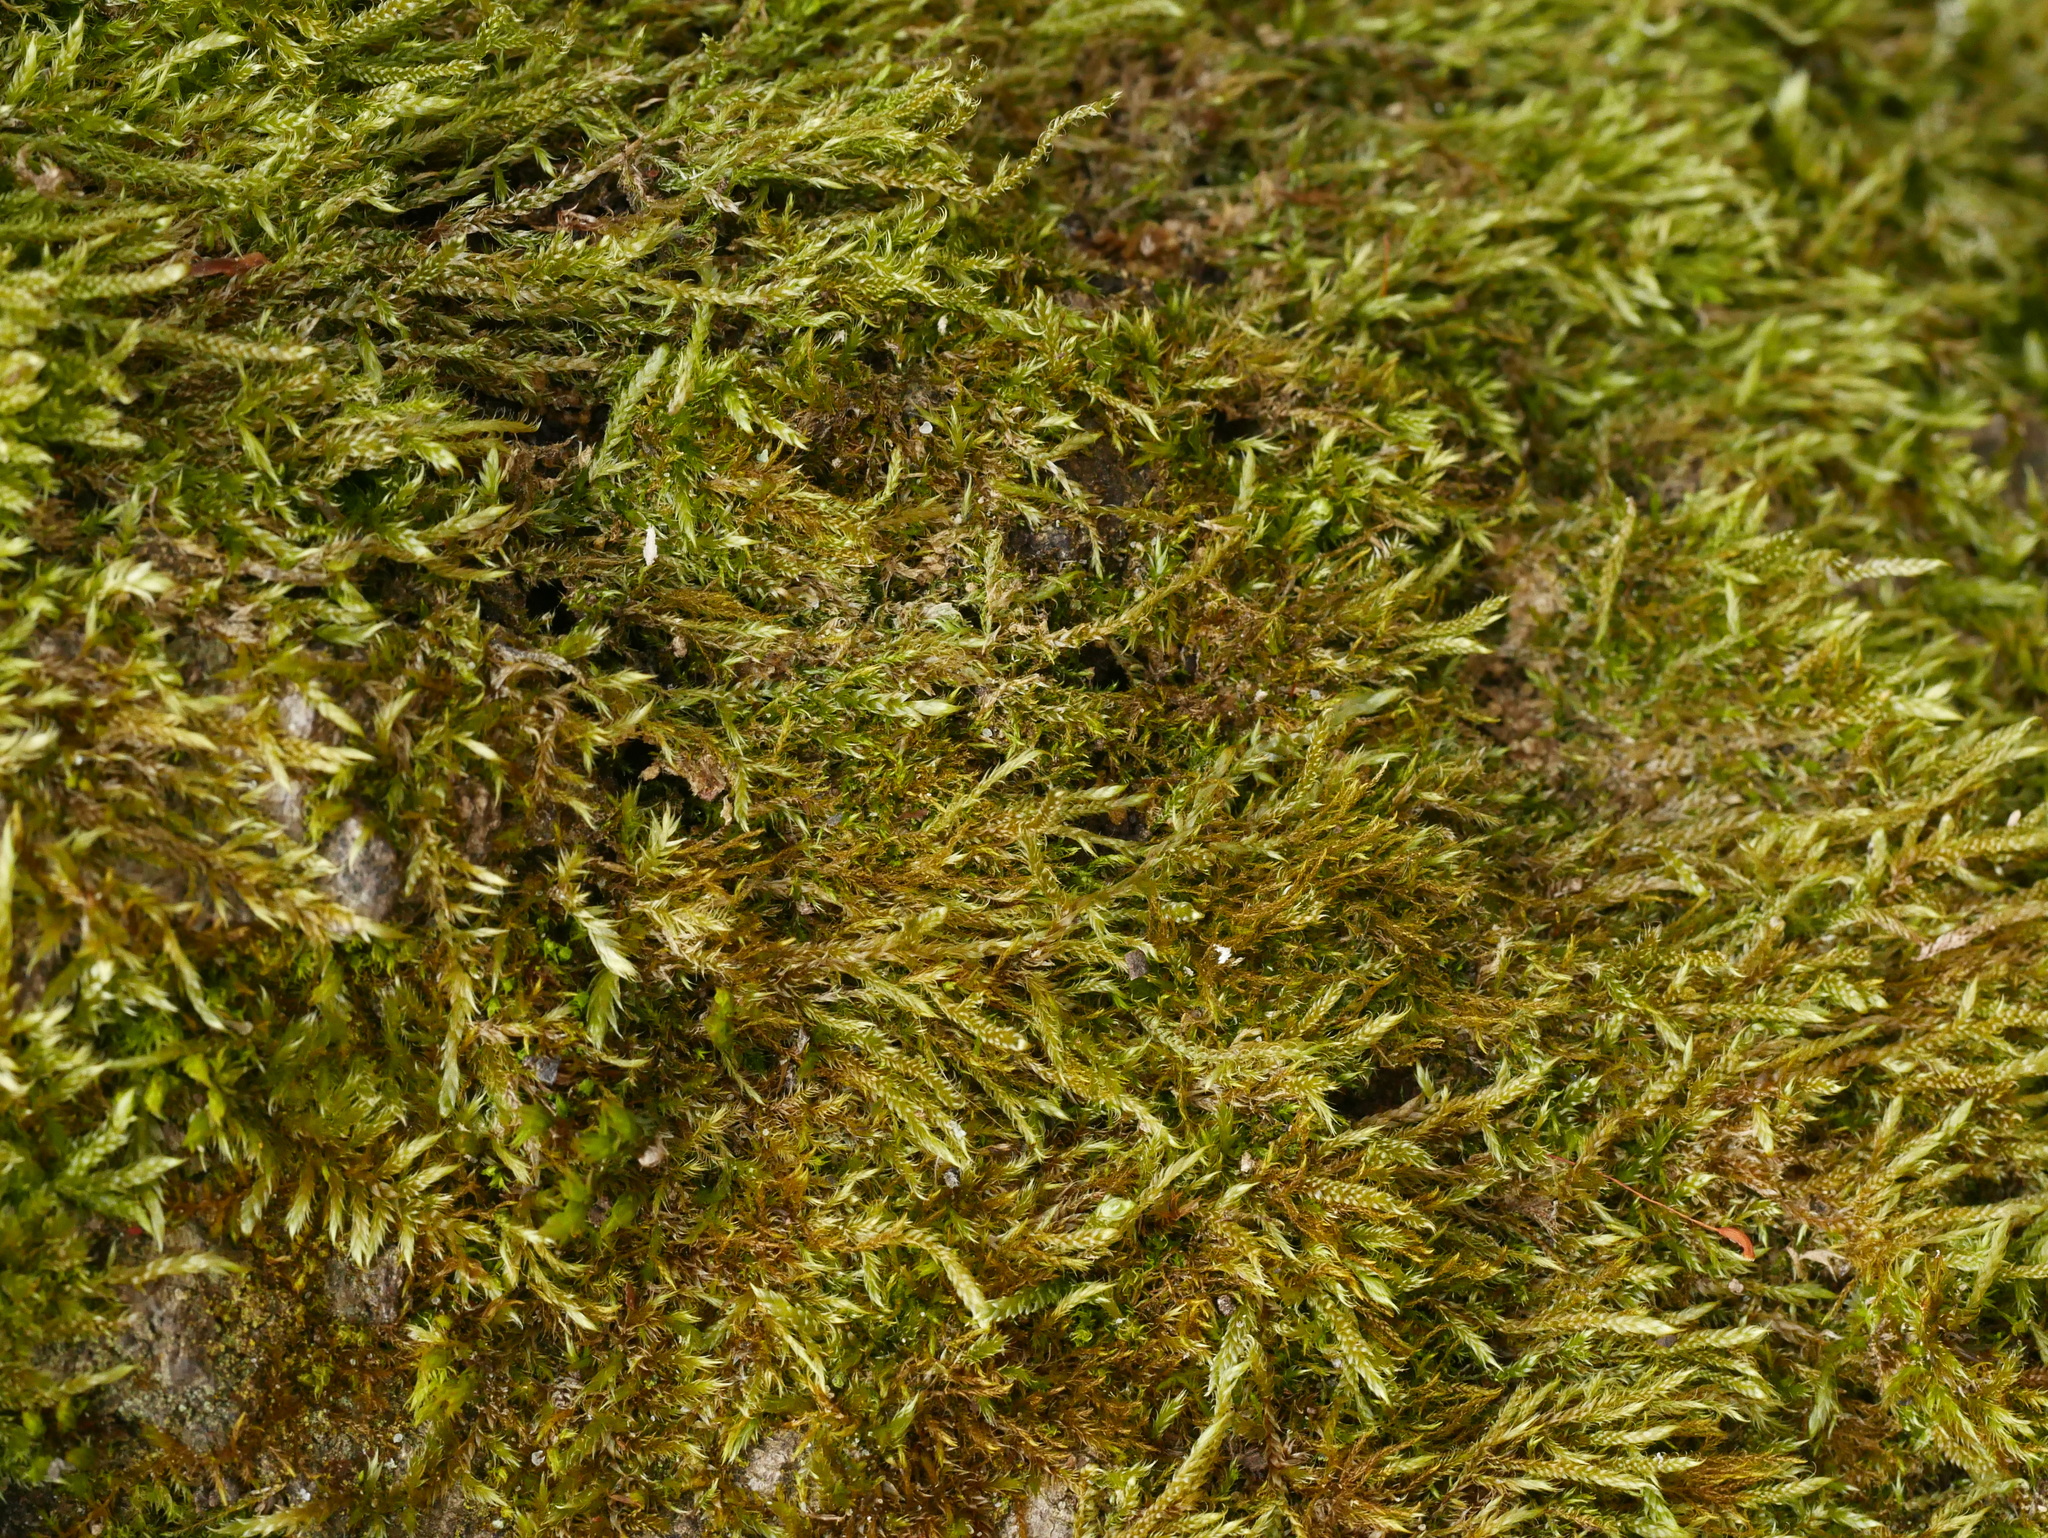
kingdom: Plantae
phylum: Bryophyta
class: Bryopsida
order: Hypnales
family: Hypnaceae
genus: Hypnum
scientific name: Hypnum cupressiforme
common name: Cypress-leaved plait-moss
